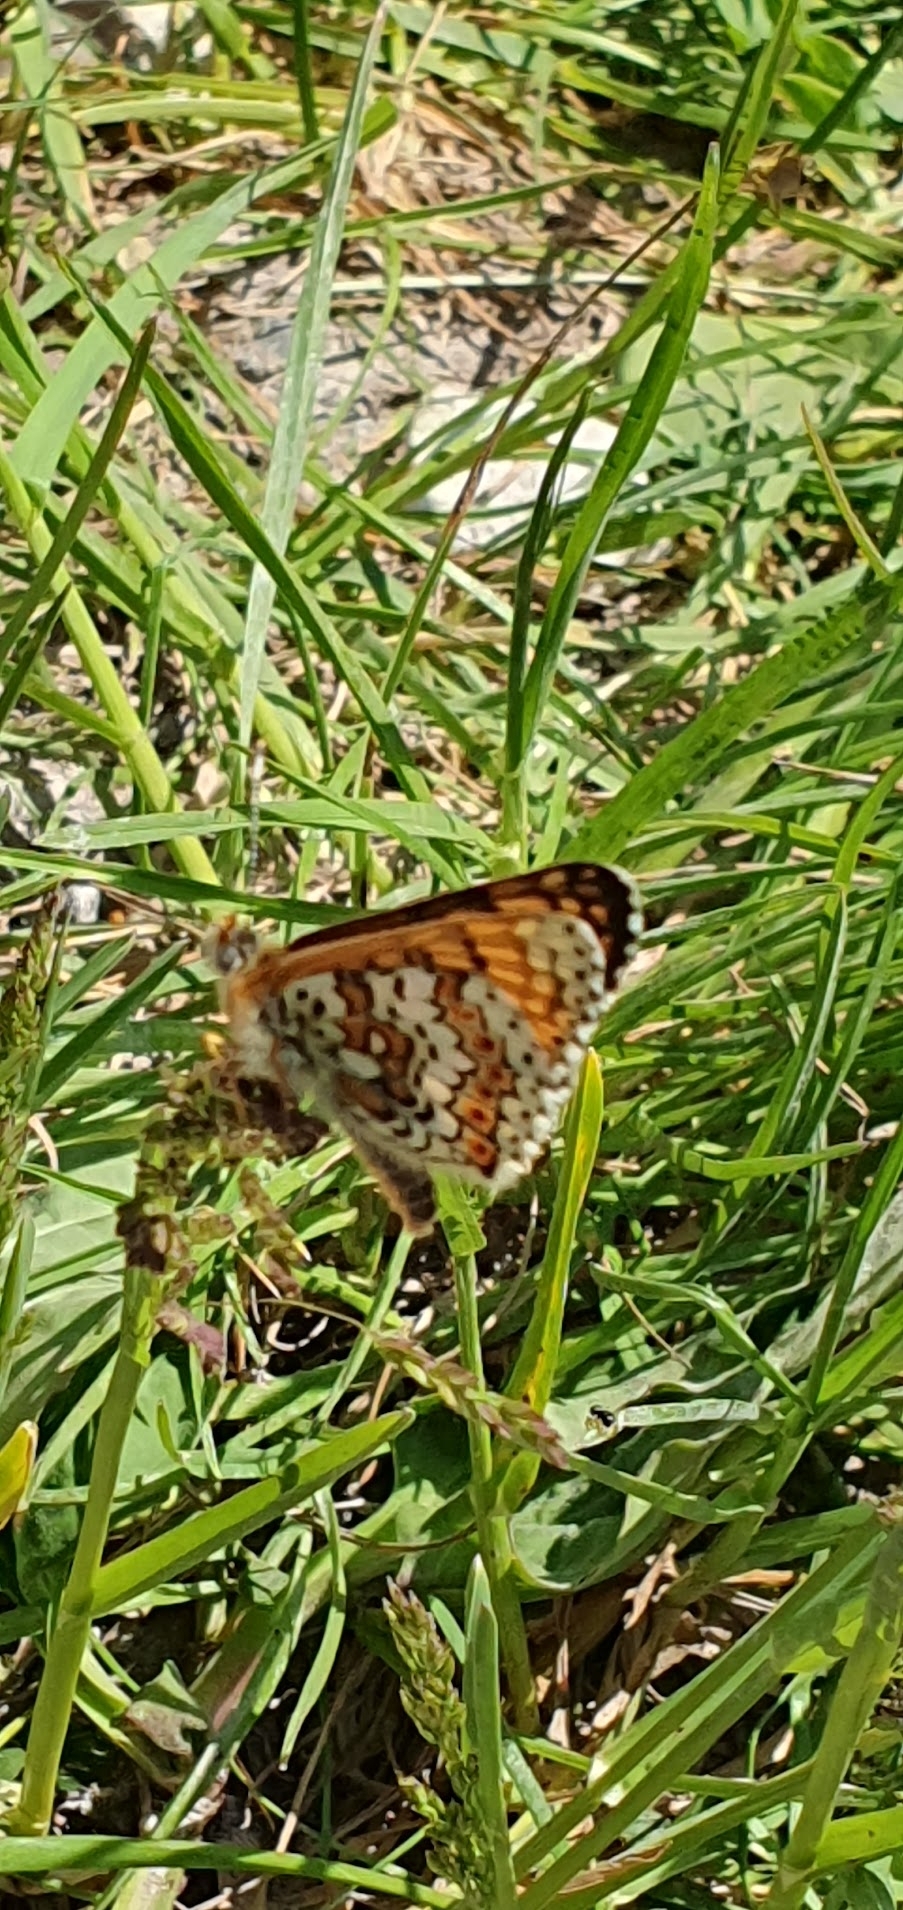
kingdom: Animalia
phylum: Arthropoda
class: Insecta
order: Lepidoptera
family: Nymphalidae
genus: Melitaea
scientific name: Melitaea cinxia
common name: Glanville fritillary
